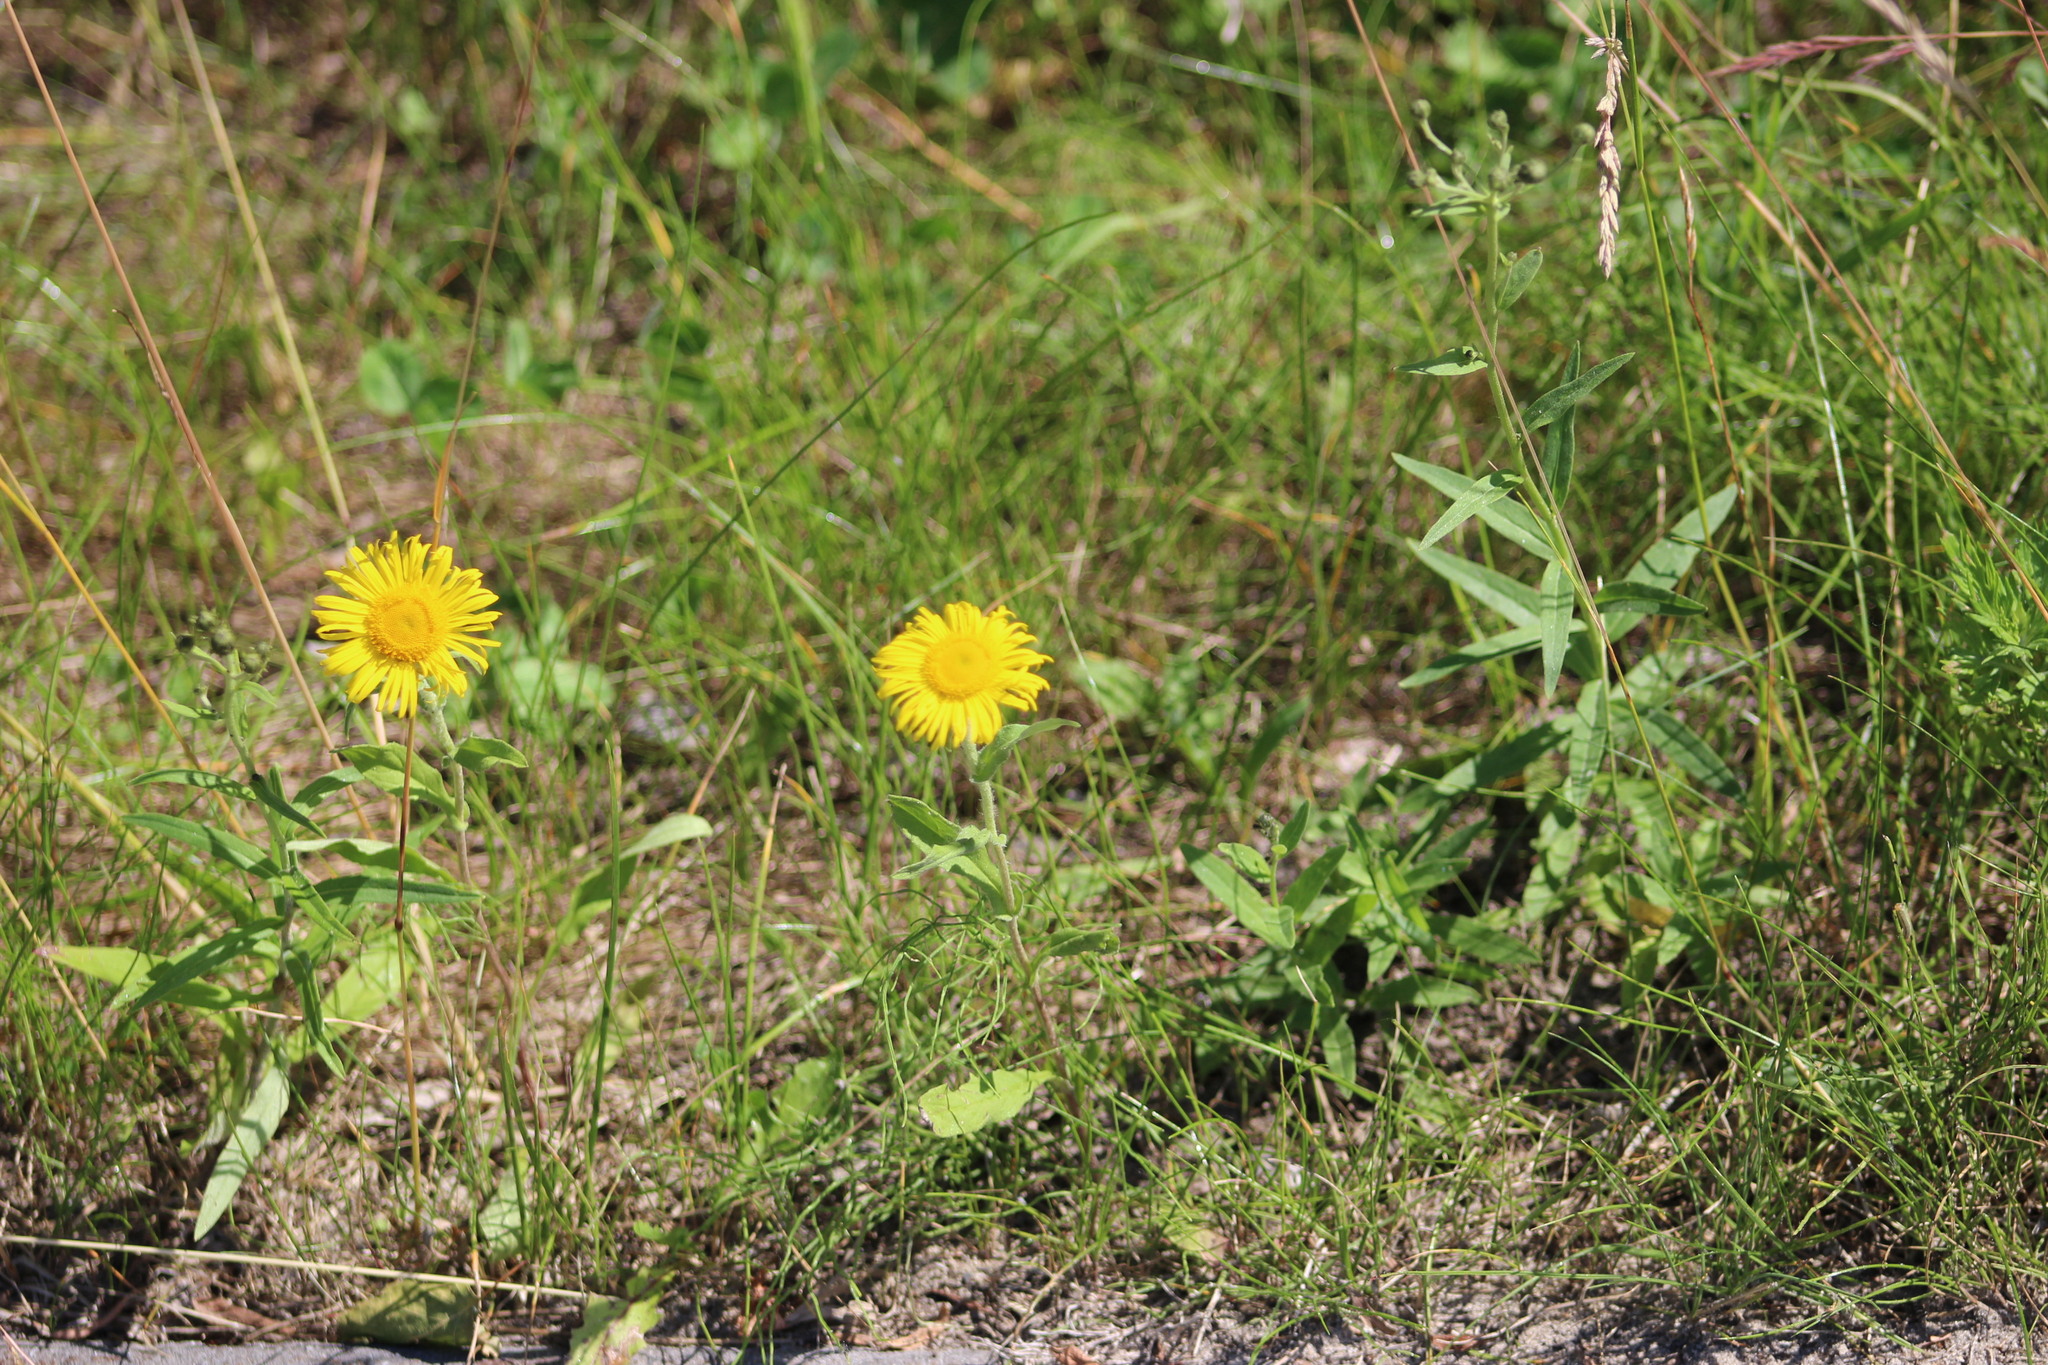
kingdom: Plantae
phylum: Tracheophyta
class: Magnoliopsida
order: Asterales
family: Asteraceae
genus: Pentanema
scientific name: Pentanema britannicum
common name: British elecampane
